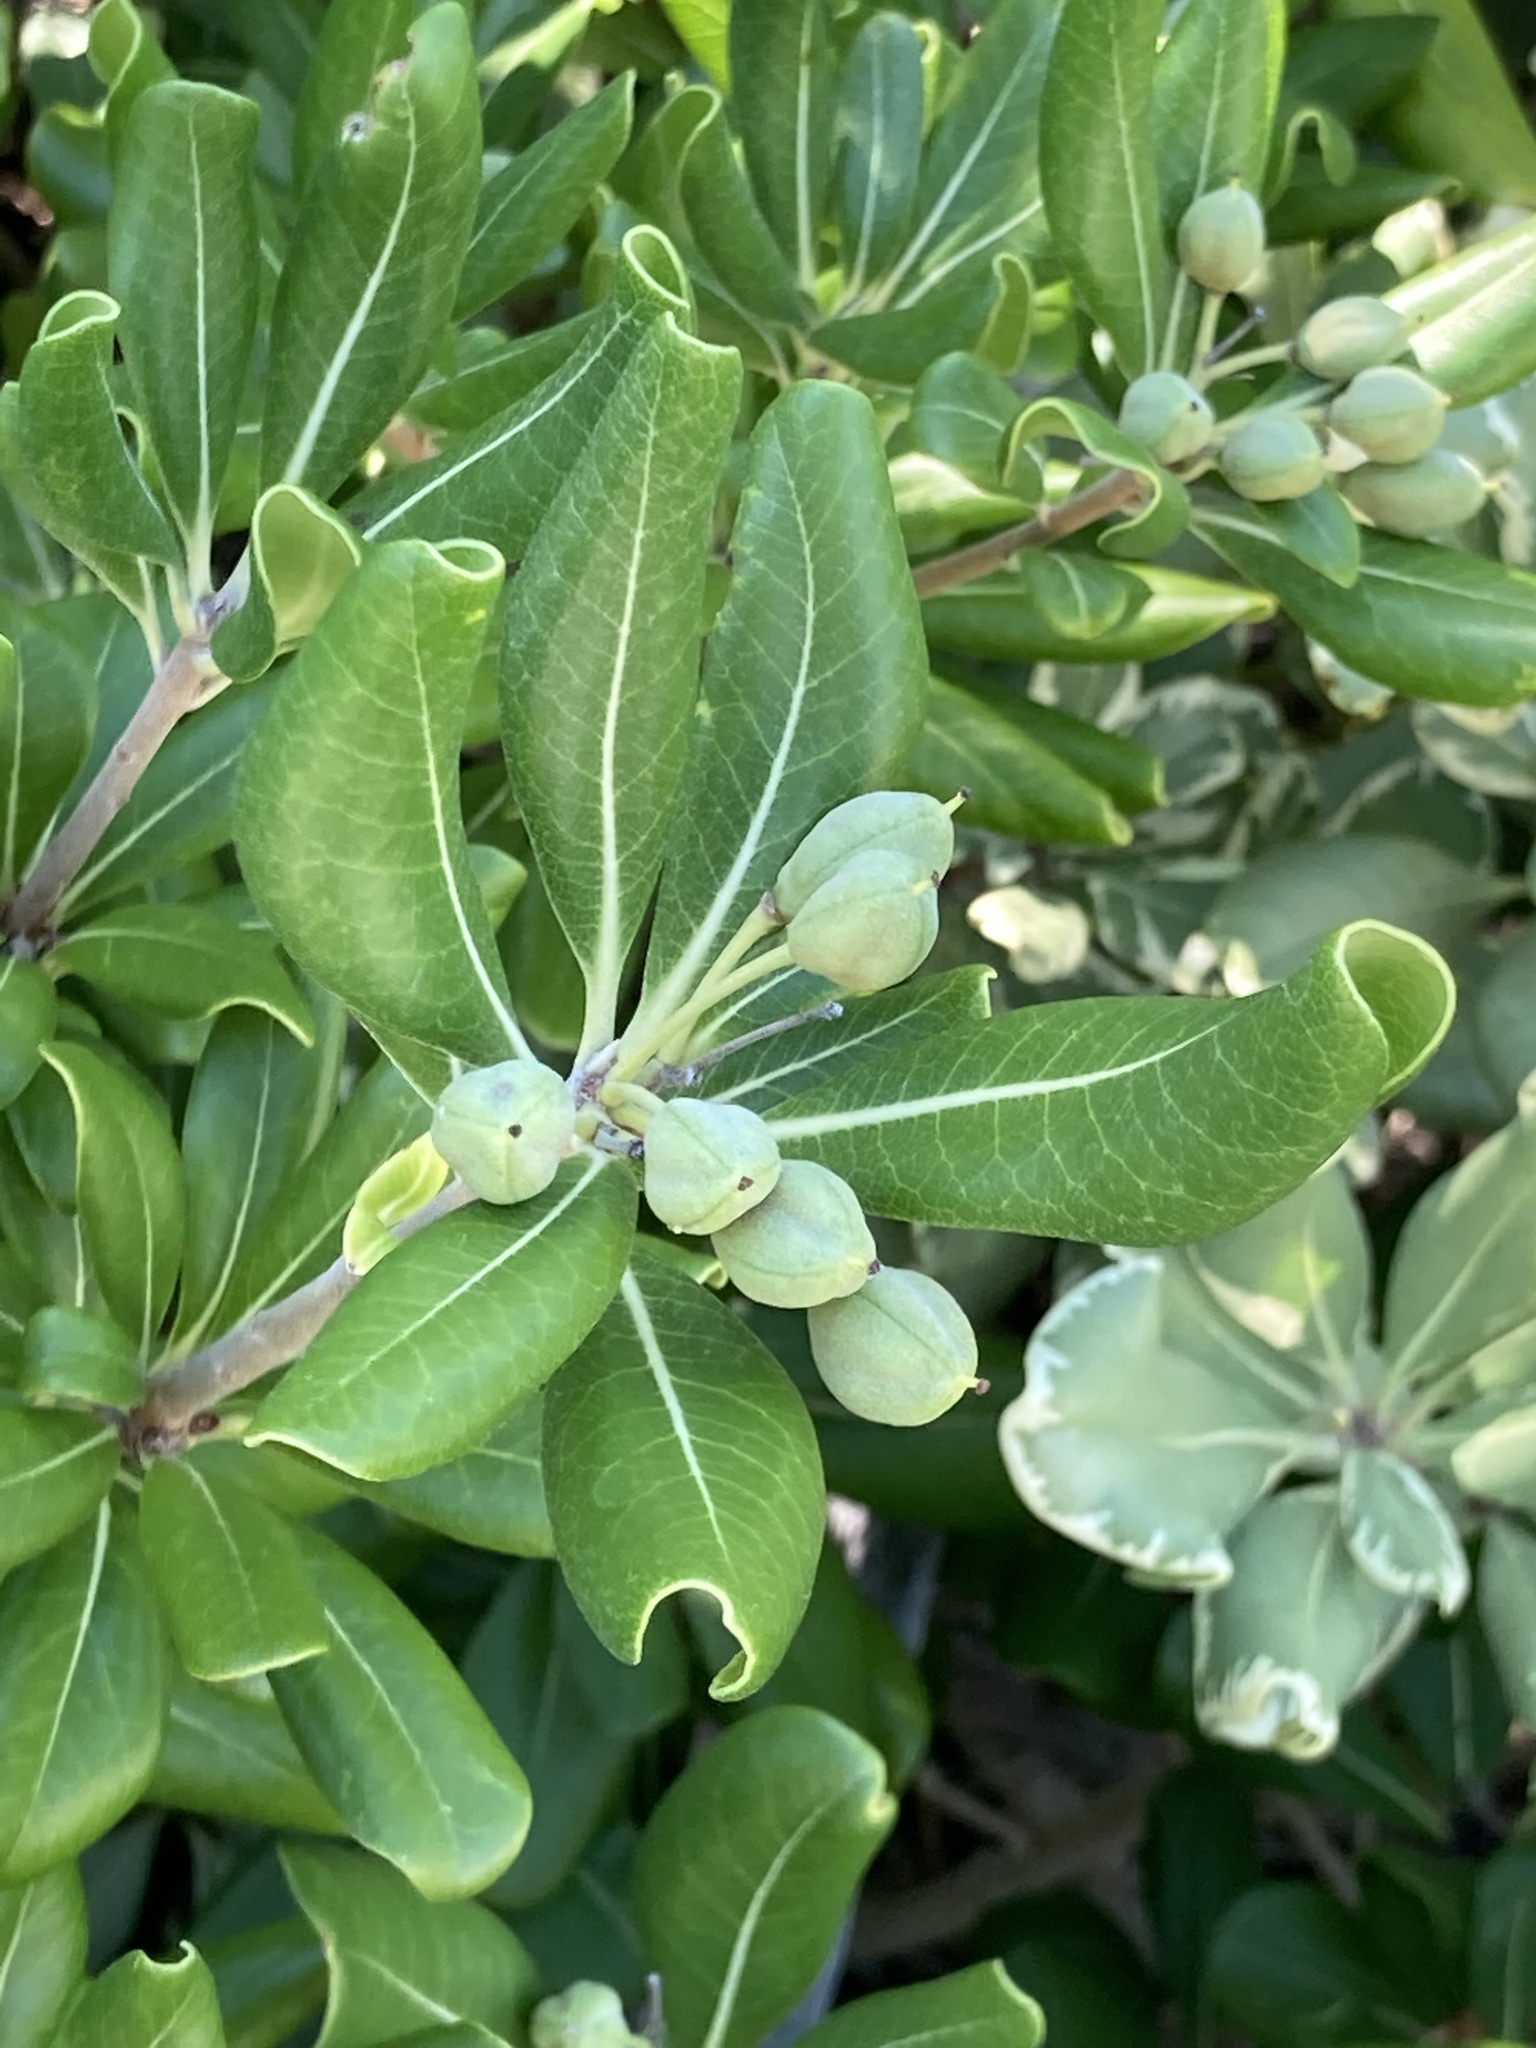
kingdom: Plantae
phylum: Tracheophyta
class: Magnoliopsida
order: Apiales
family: Pittosporaceae
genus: Pittosporum
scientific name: Pittosporum tobira
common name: Japanese cheesewood
